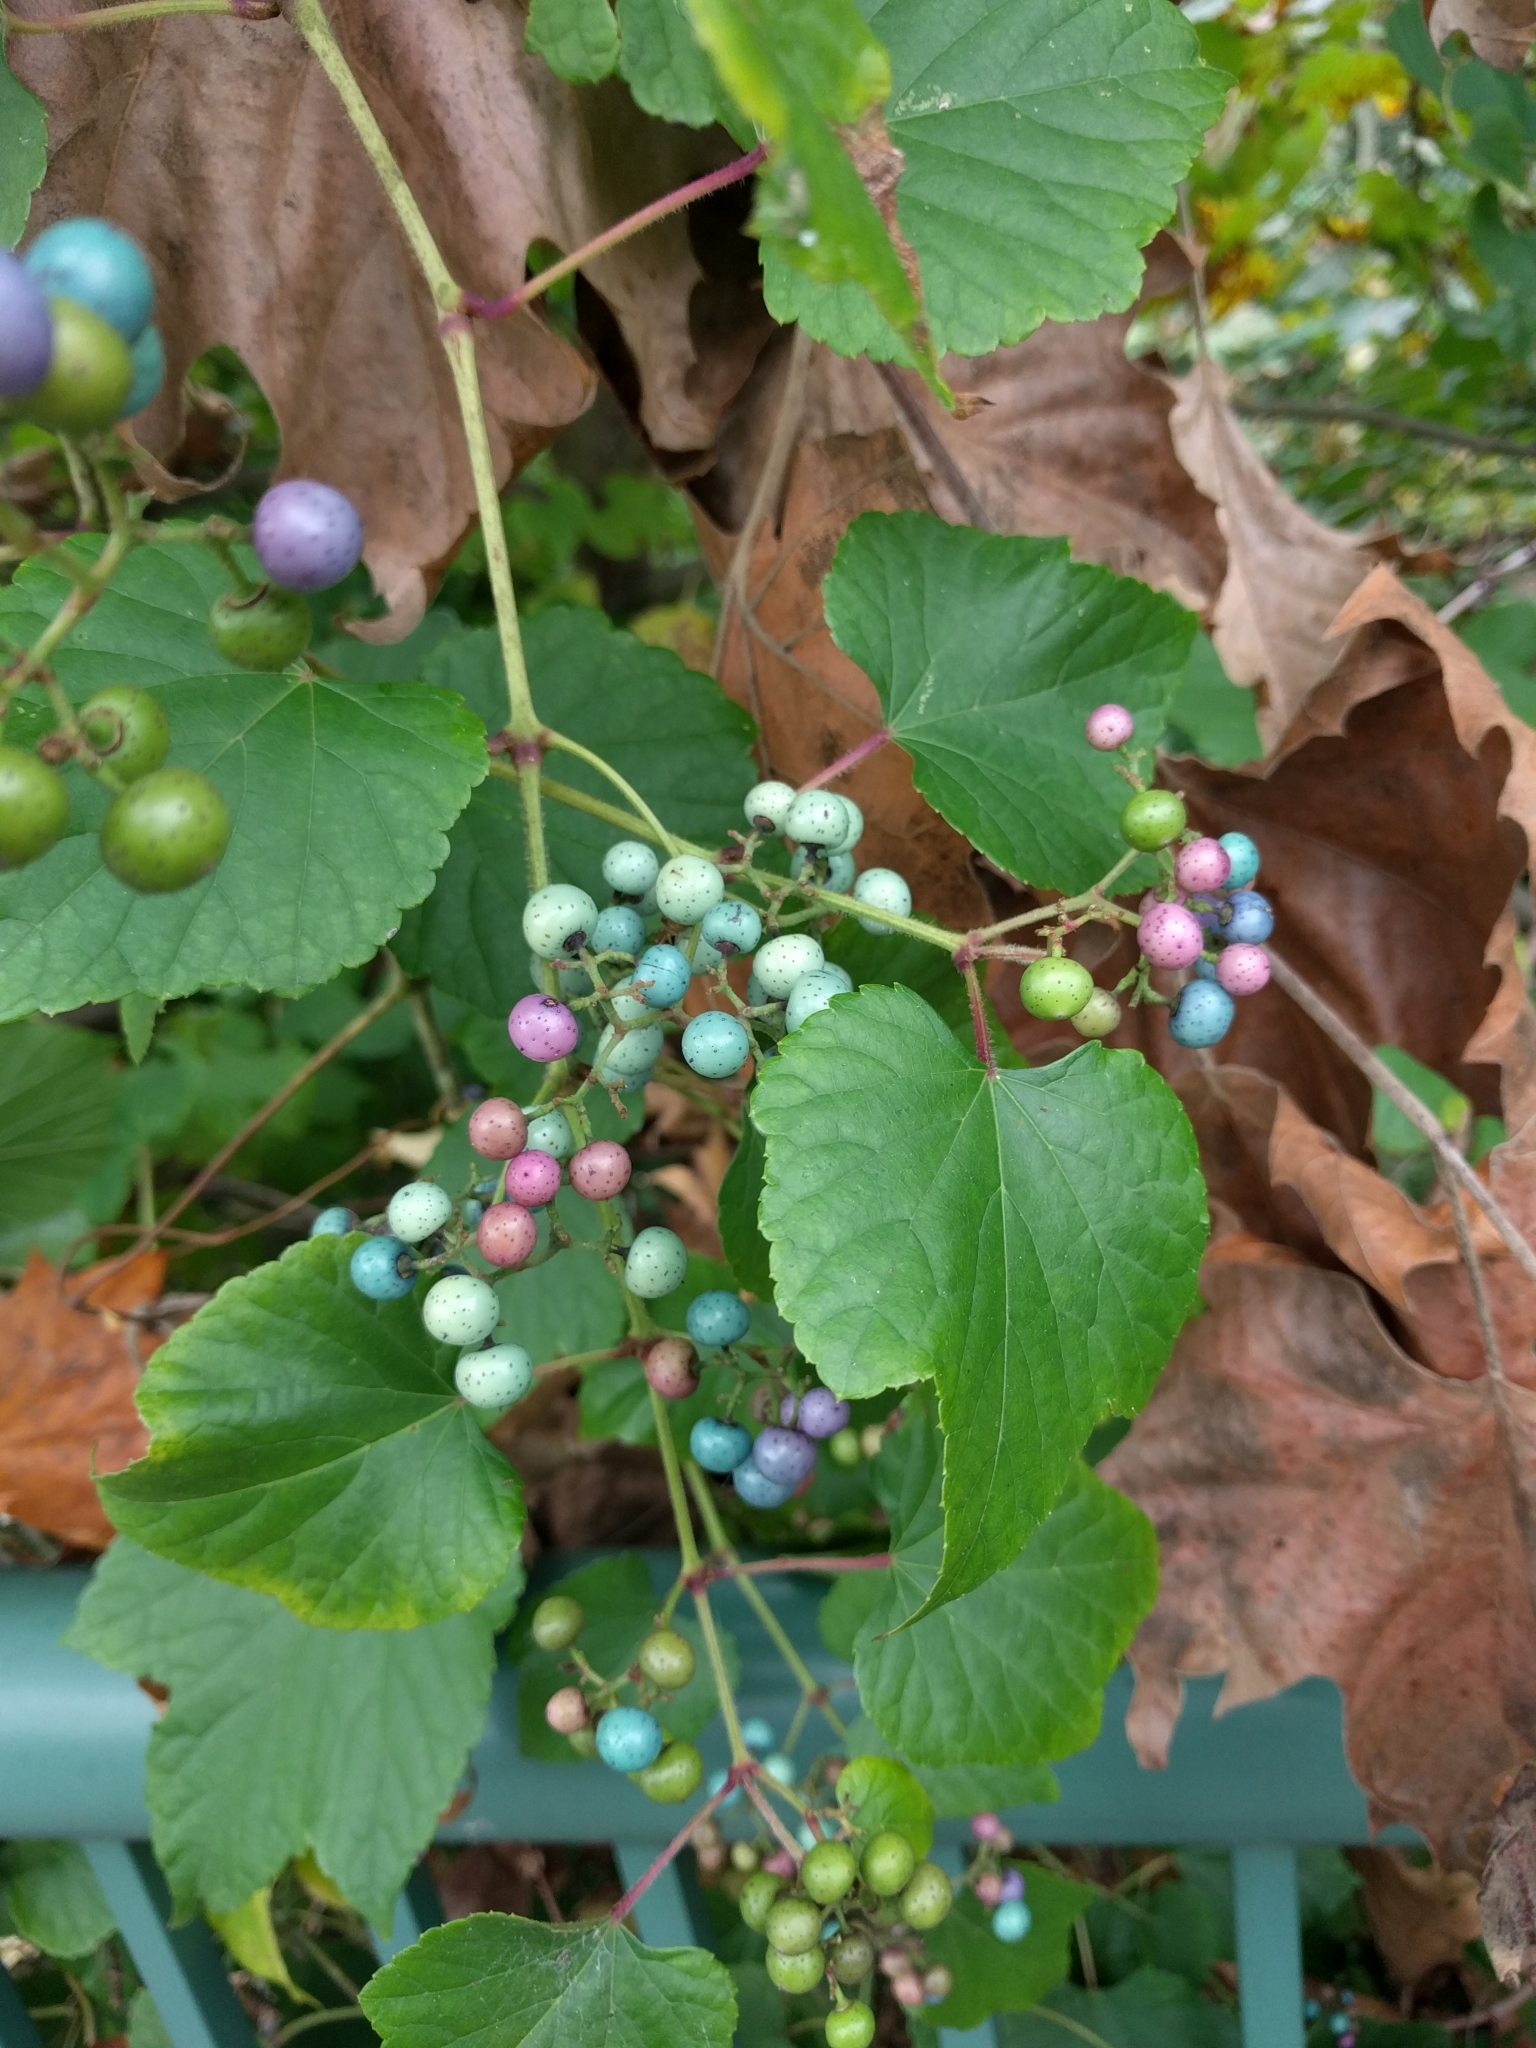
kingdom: Plantae
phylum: Tracheophyta
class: Magnoliopsida
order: Vitales
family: Vitaceae
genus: Ampelopsis
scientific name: Ampelopsis glandulosa
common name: Amur peppervine
